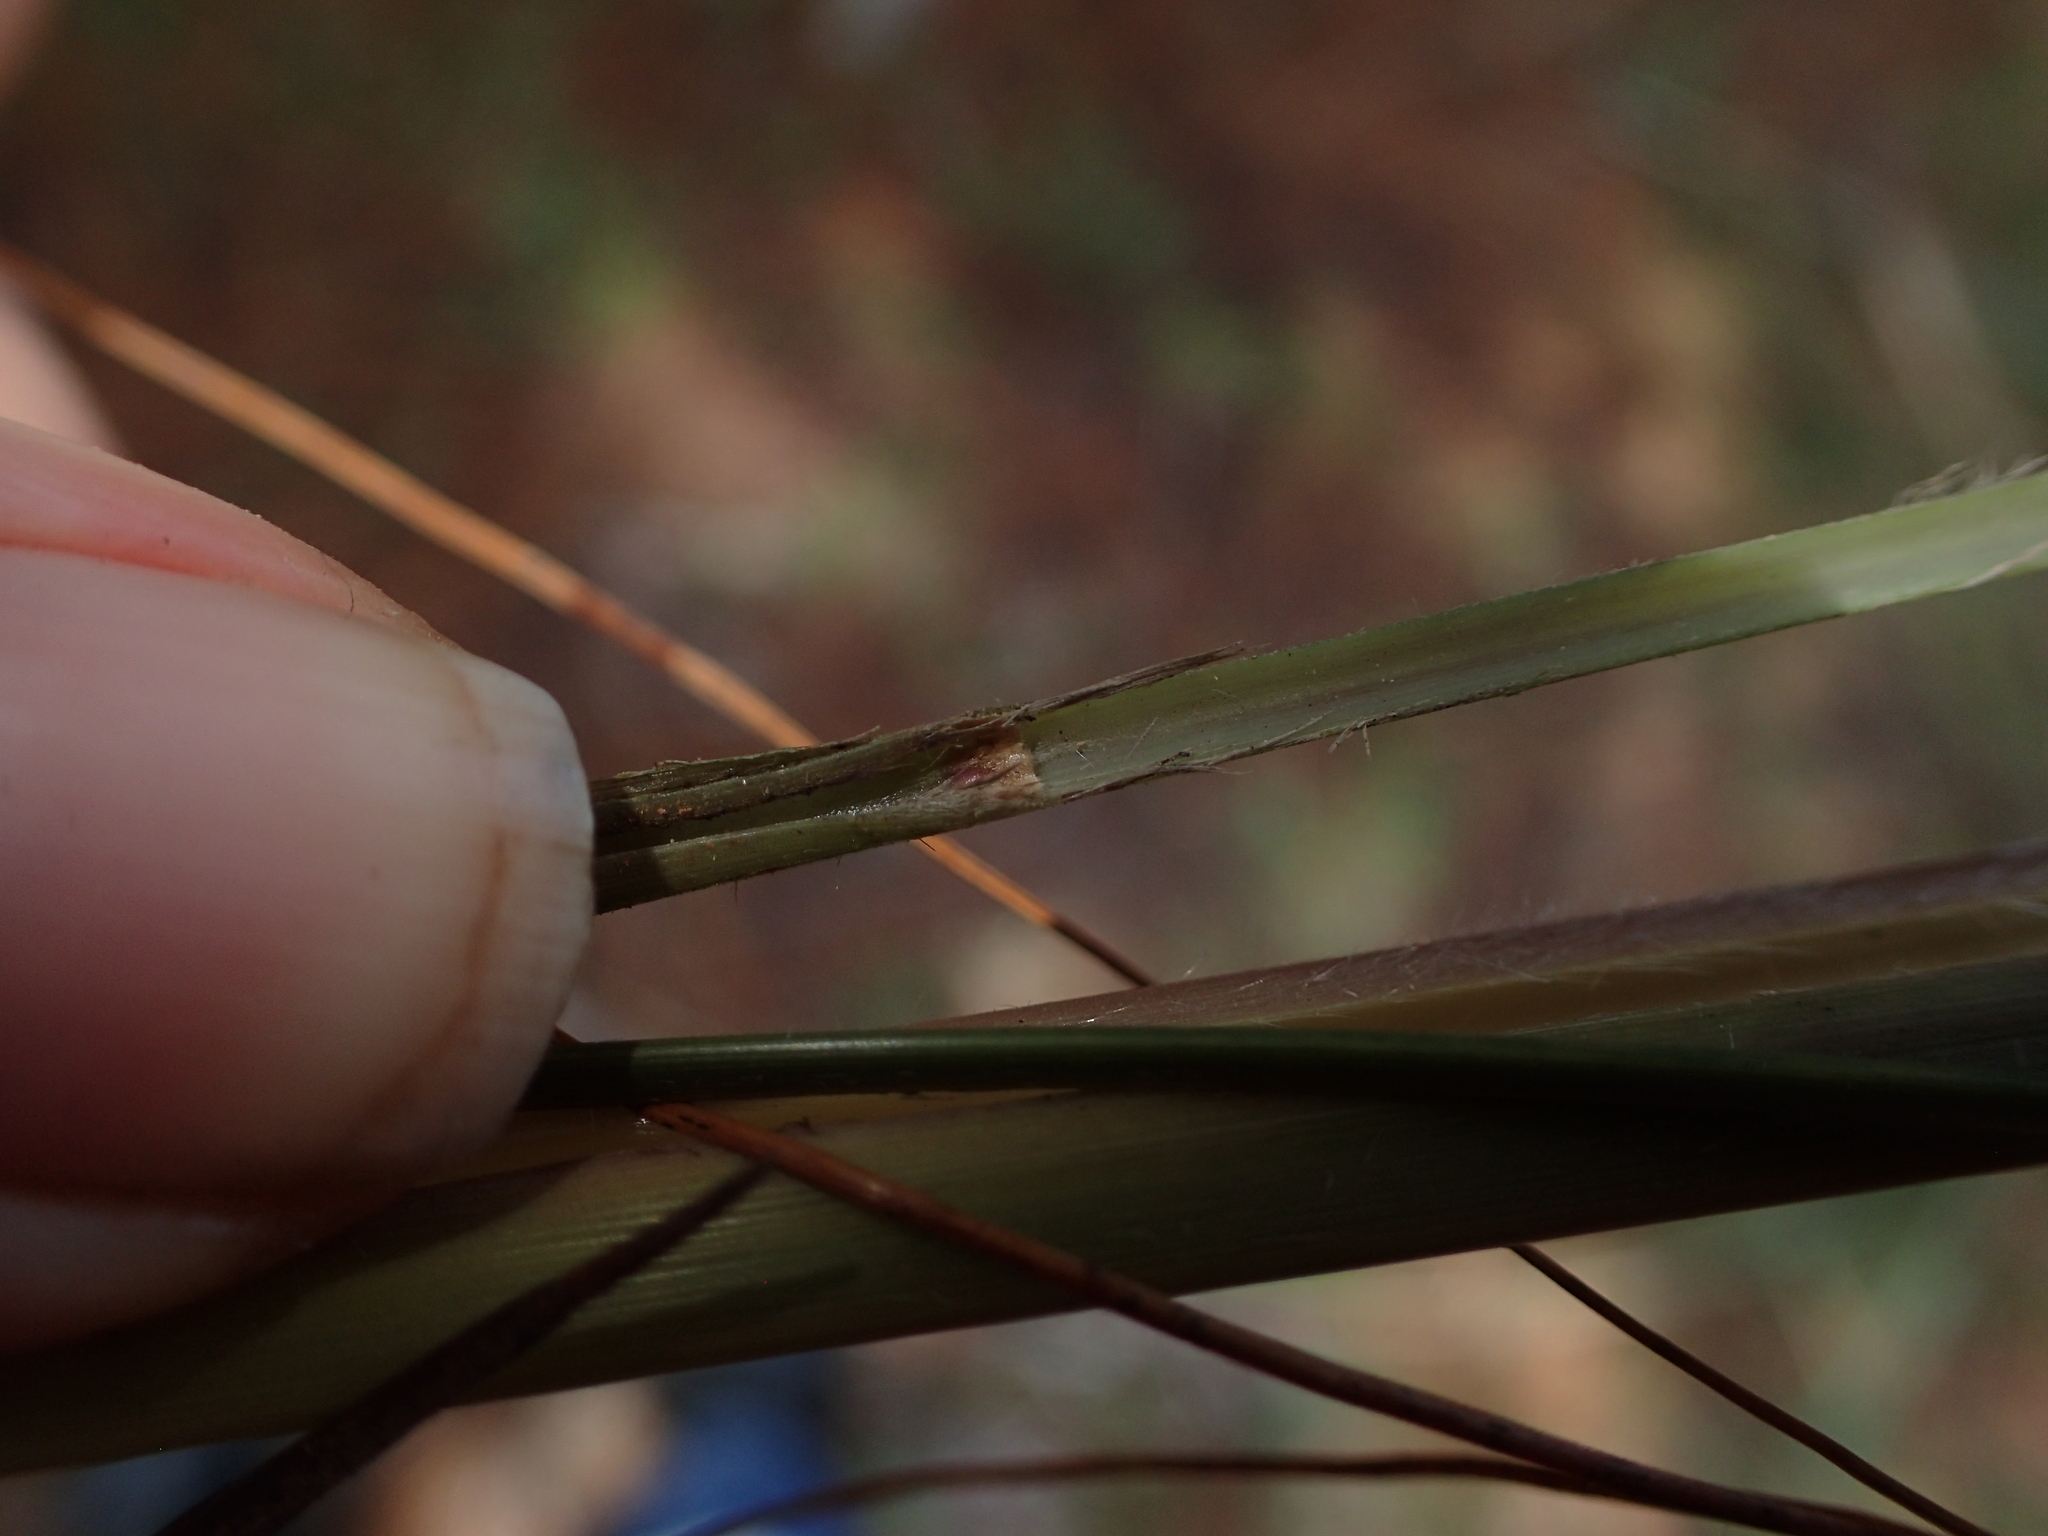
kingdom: Plantae
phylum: Tracheophyta
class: Liliopsida
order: Poales
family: Poaceae
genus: Lasiorhachis
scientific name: Lasiorhachis viguieri
